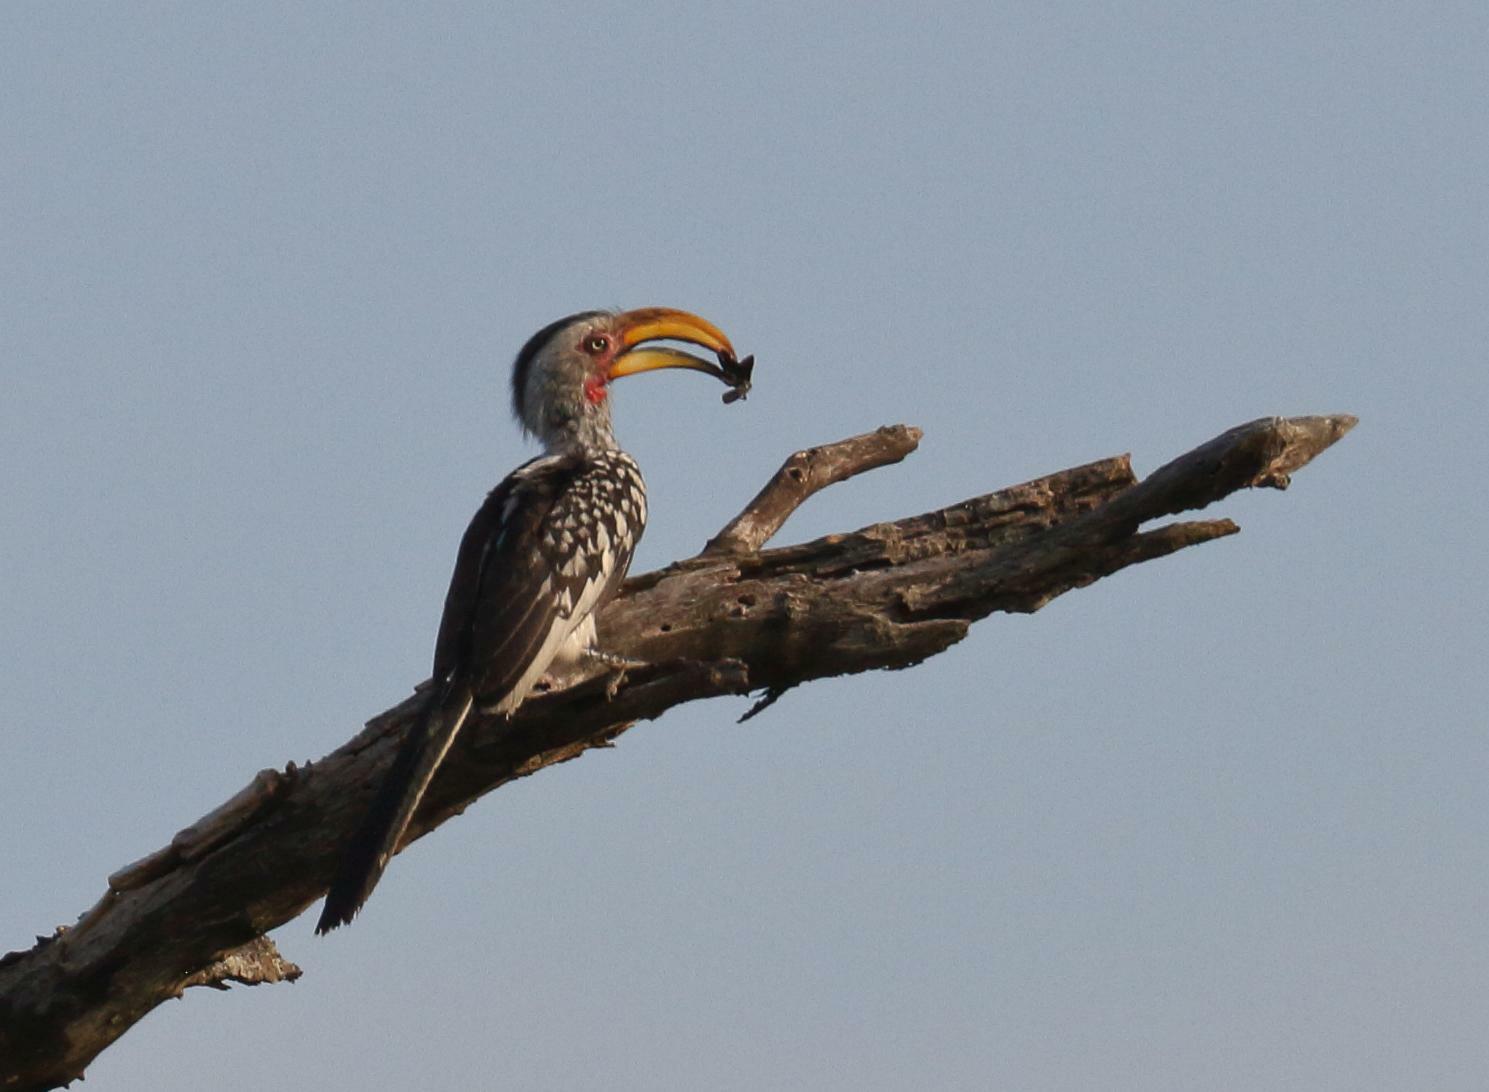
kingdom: Animalia
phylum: Chordata
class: Aves
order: Bucerotiformes
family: Bucerotidae
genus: Tockus
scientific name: Tockus leucomelas
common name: Southern yellow-billed hornbill
